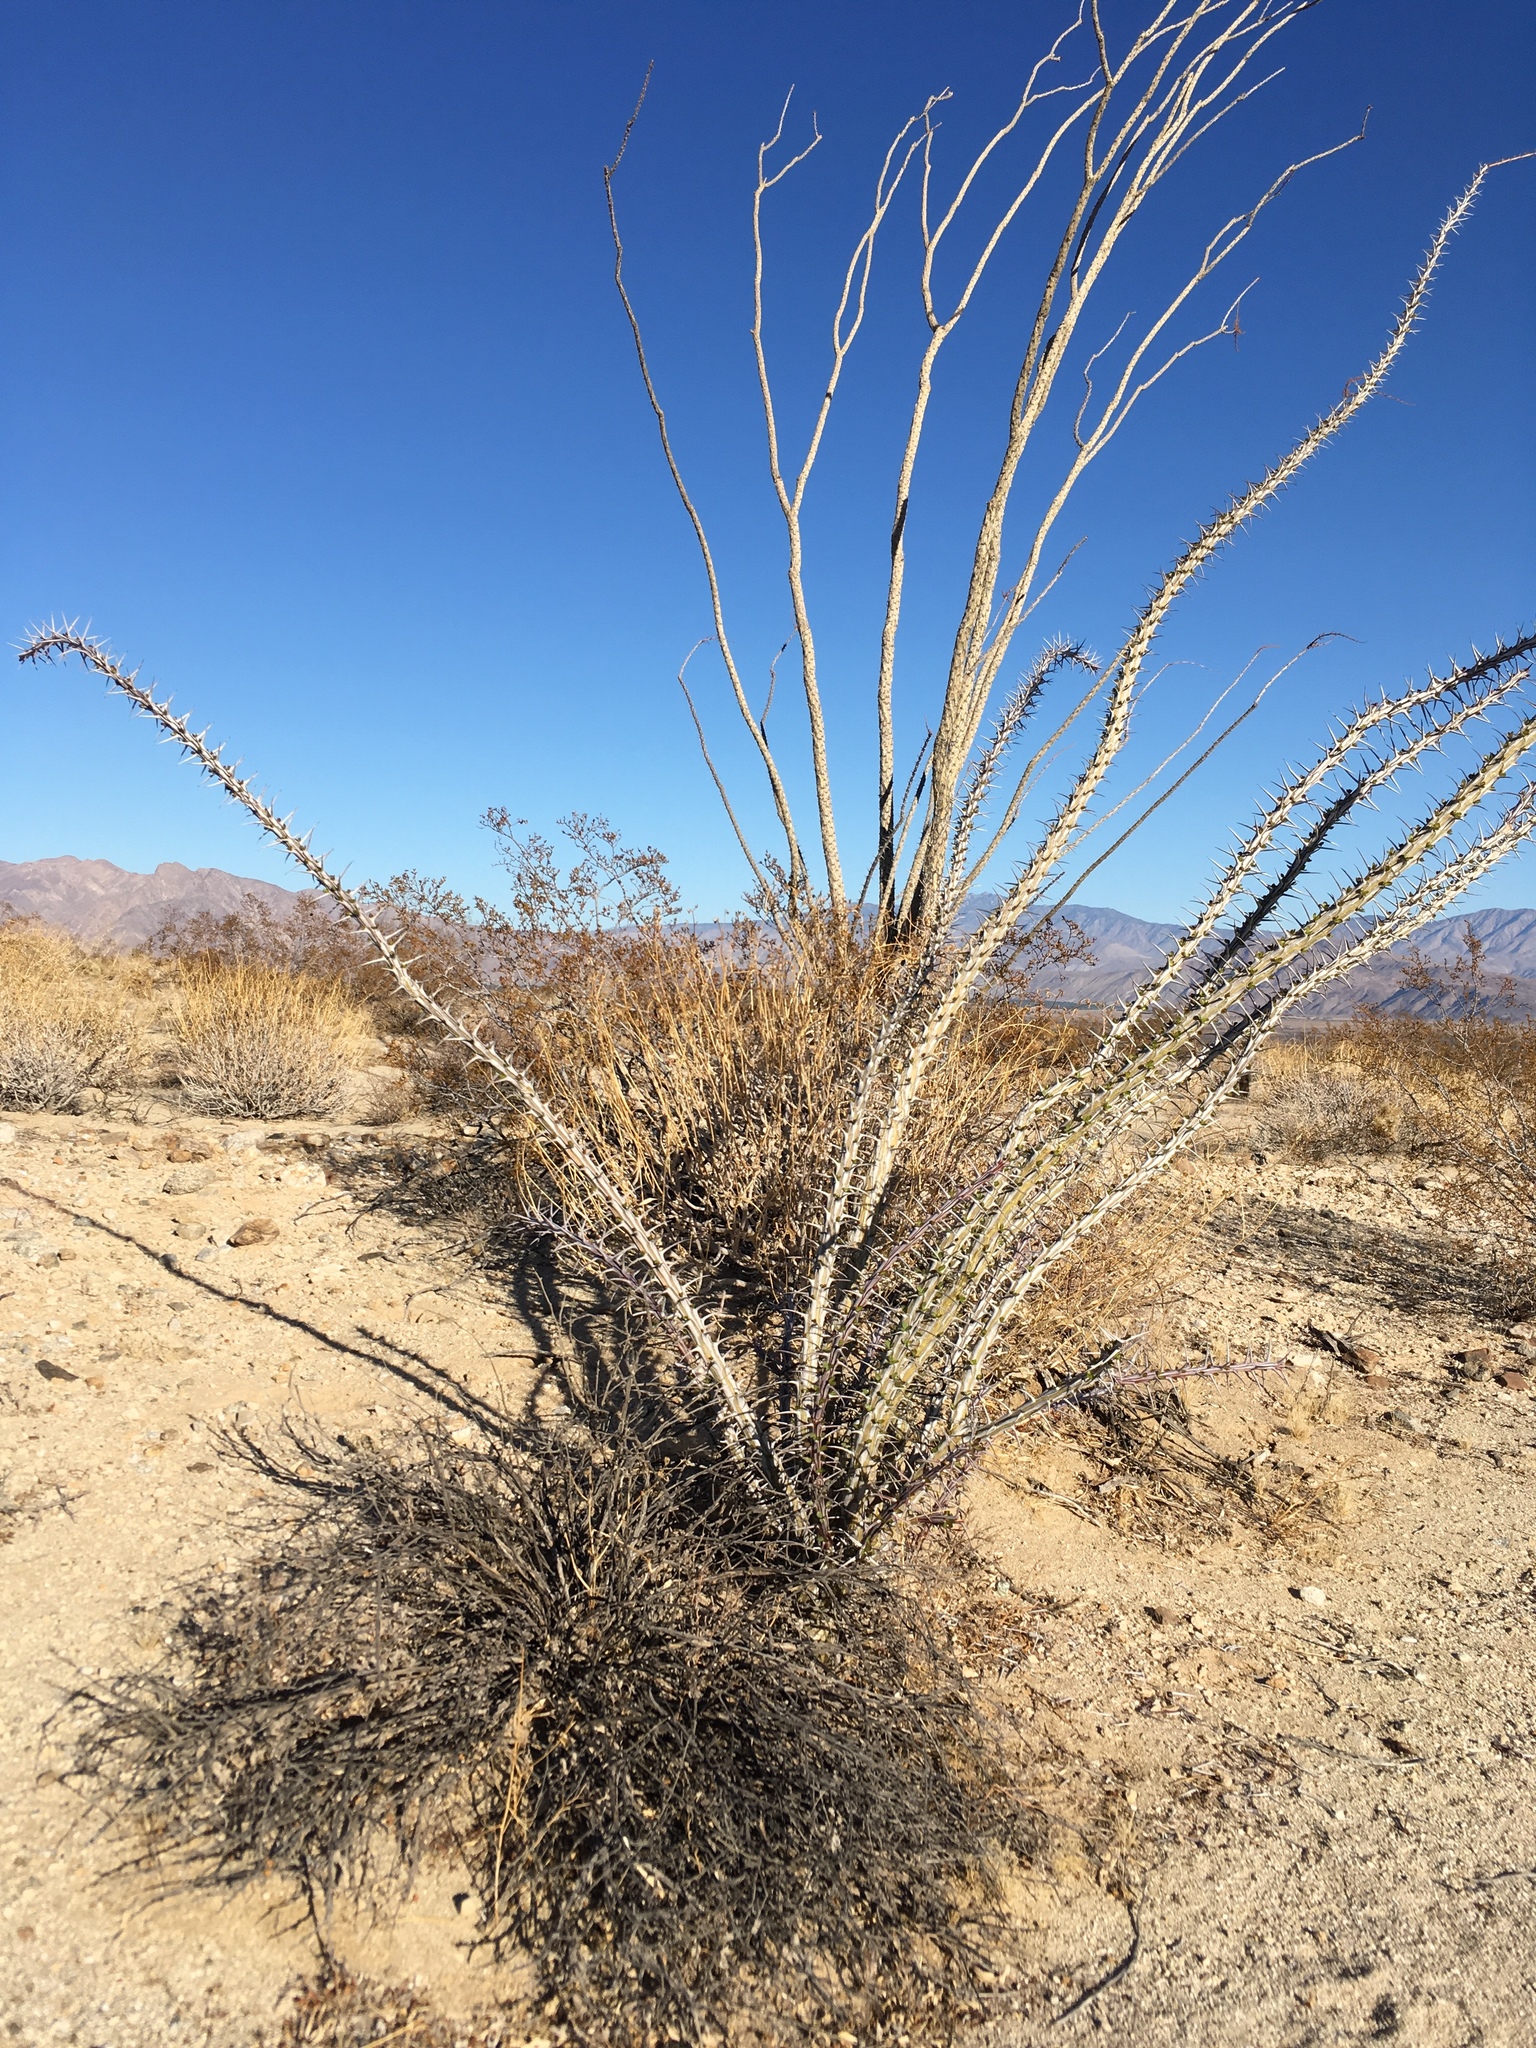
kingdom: Plantae
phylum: Tracheophyta
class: Magnoliopsida
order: Ericales
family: Fouquieriaceae
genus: Fouquieria
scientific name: Fouquieria splendens
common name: Vine-cactus
